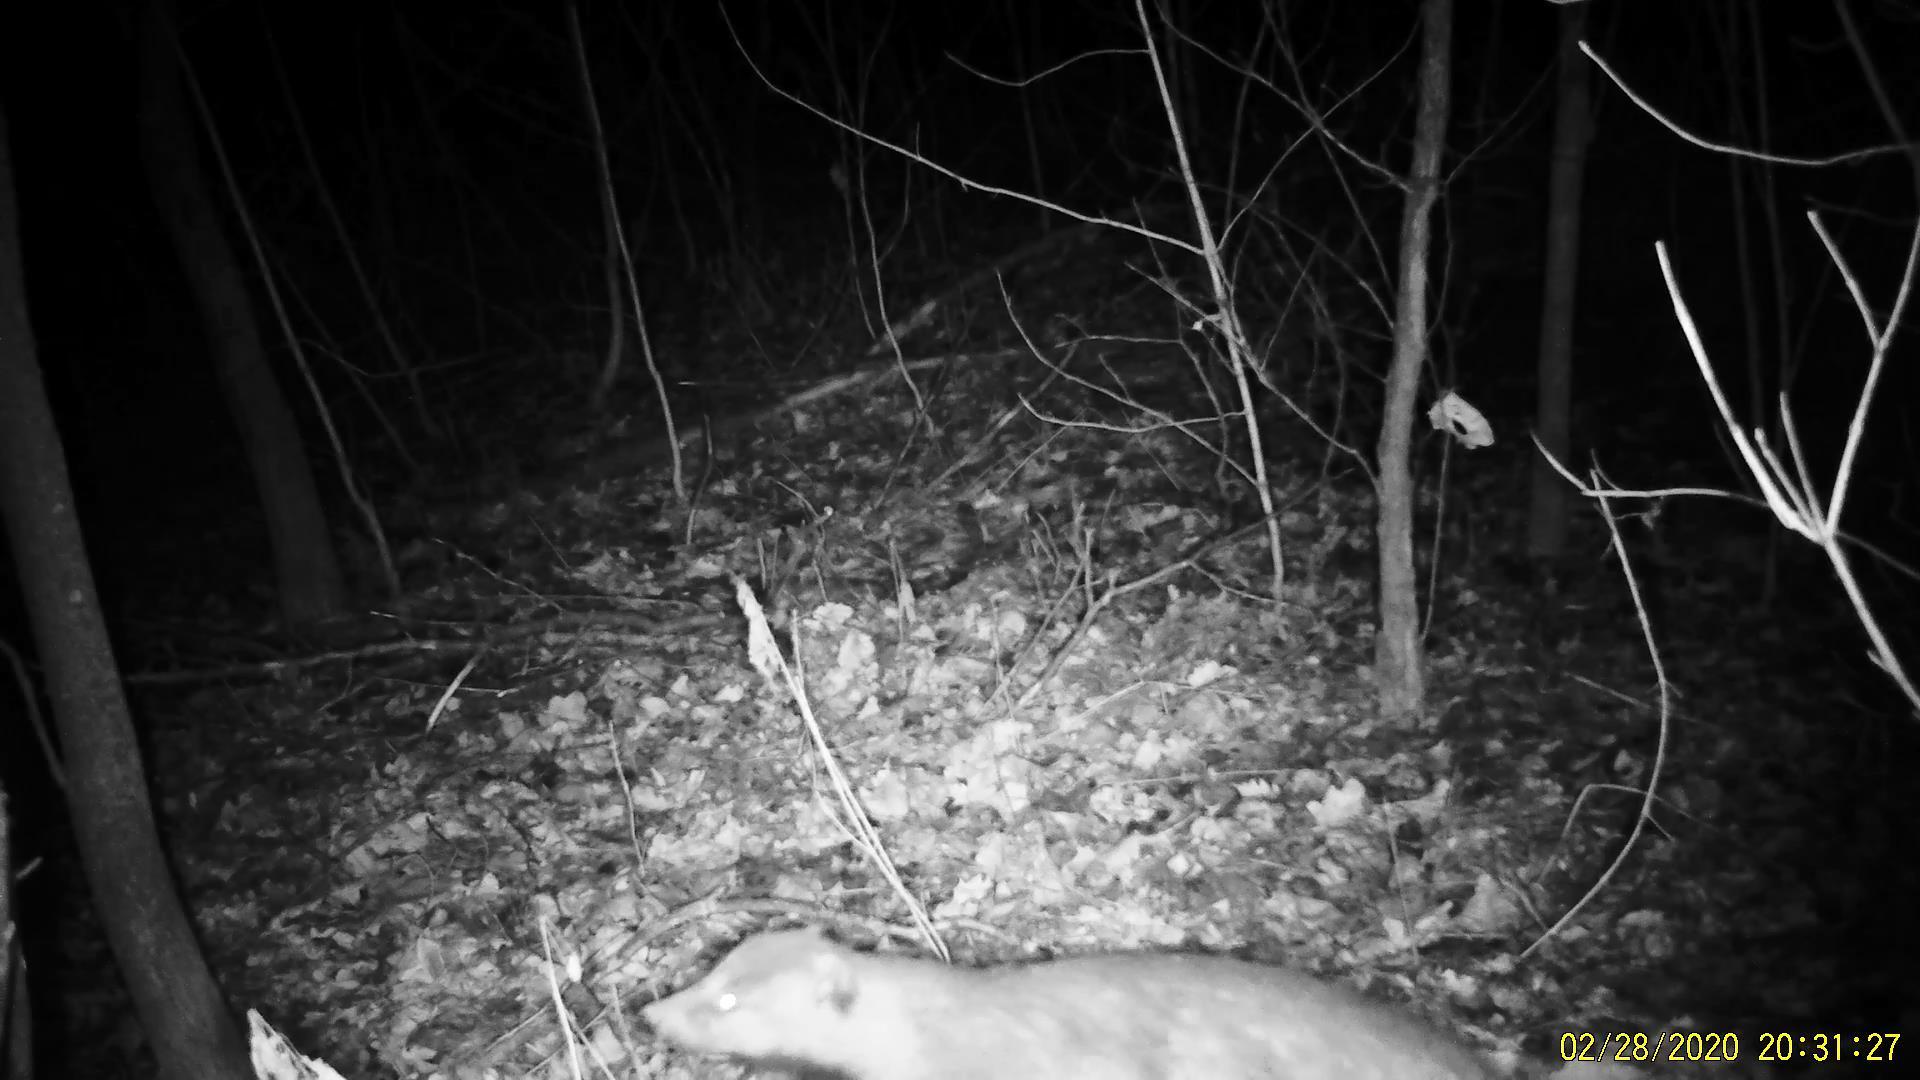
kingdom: Animalia
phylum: Chordata
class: Mammalia
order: Carnivora
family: Mustelidae
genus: Meles
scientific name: Meles leucurus
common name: Asian badger
